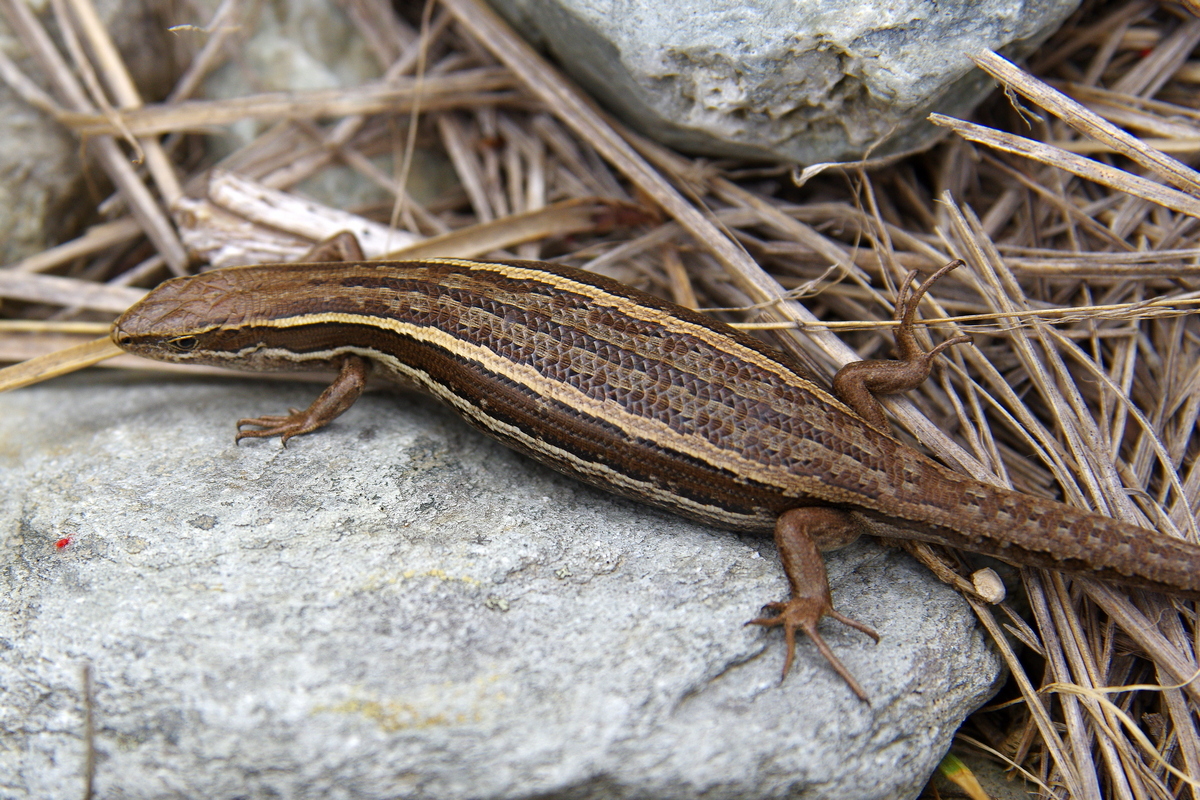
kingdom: Animalia
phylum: Chordata
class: Squamata
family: Scincidae
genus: Oligosoma
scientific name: Oligosoma polychroma
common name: Common new zealand skink
